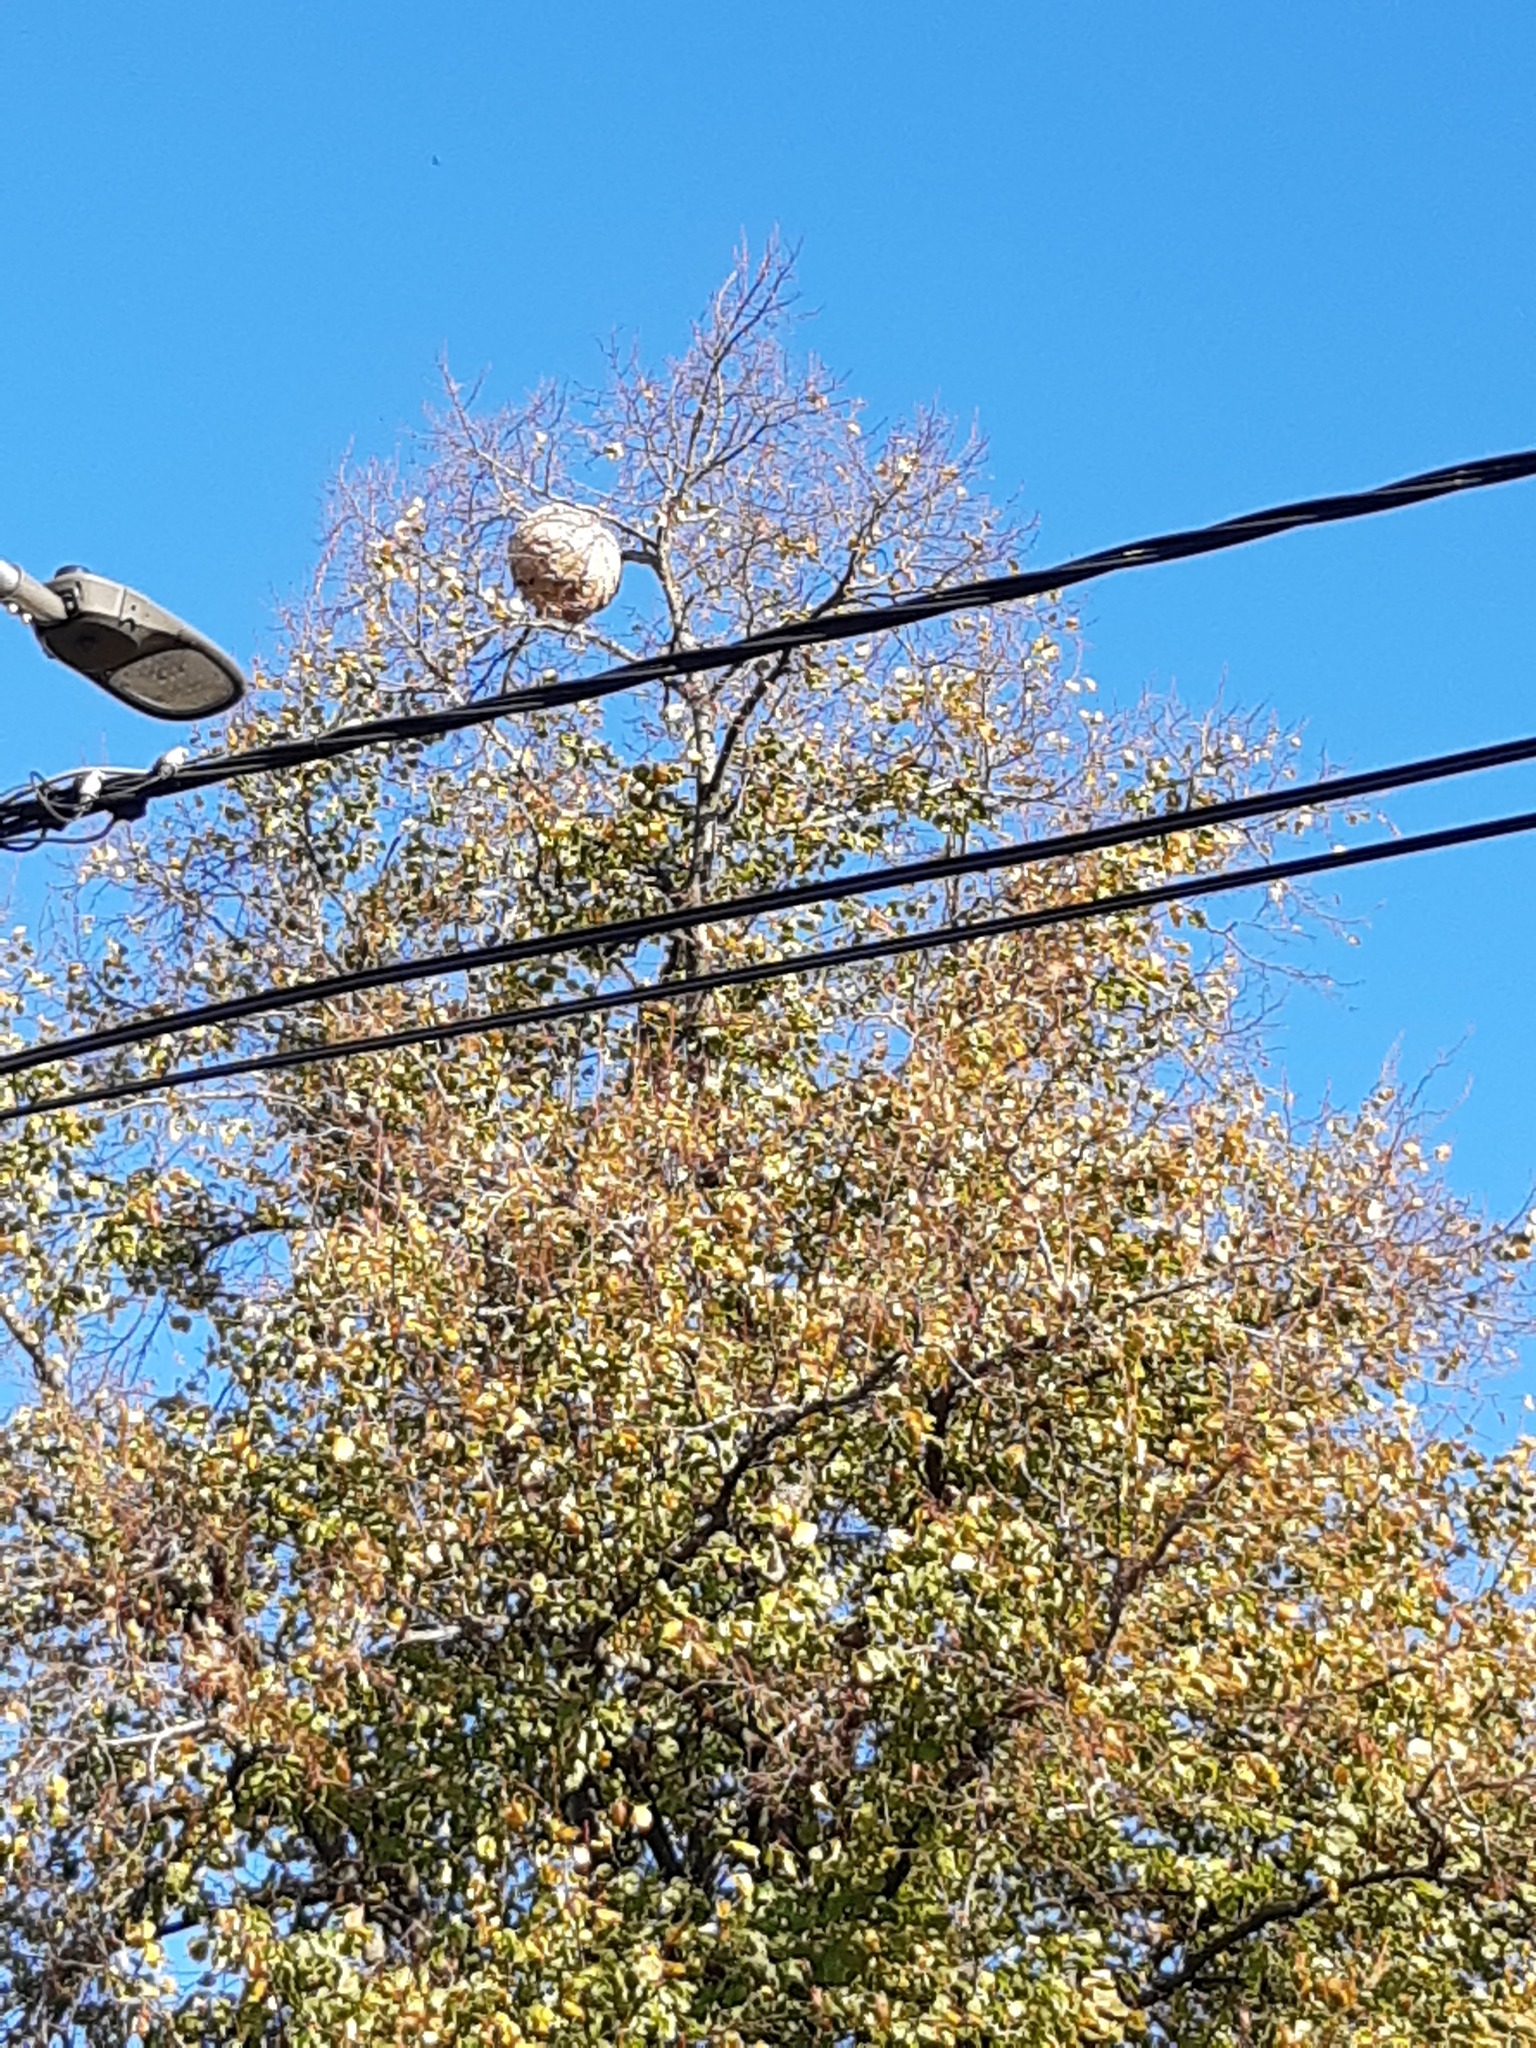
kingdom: Animalia
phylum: Arthropoda
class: Insecta
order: Hymenoptera
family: Vespidae
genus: Vespa
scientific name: Vespa velutina
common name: Asian hornet
